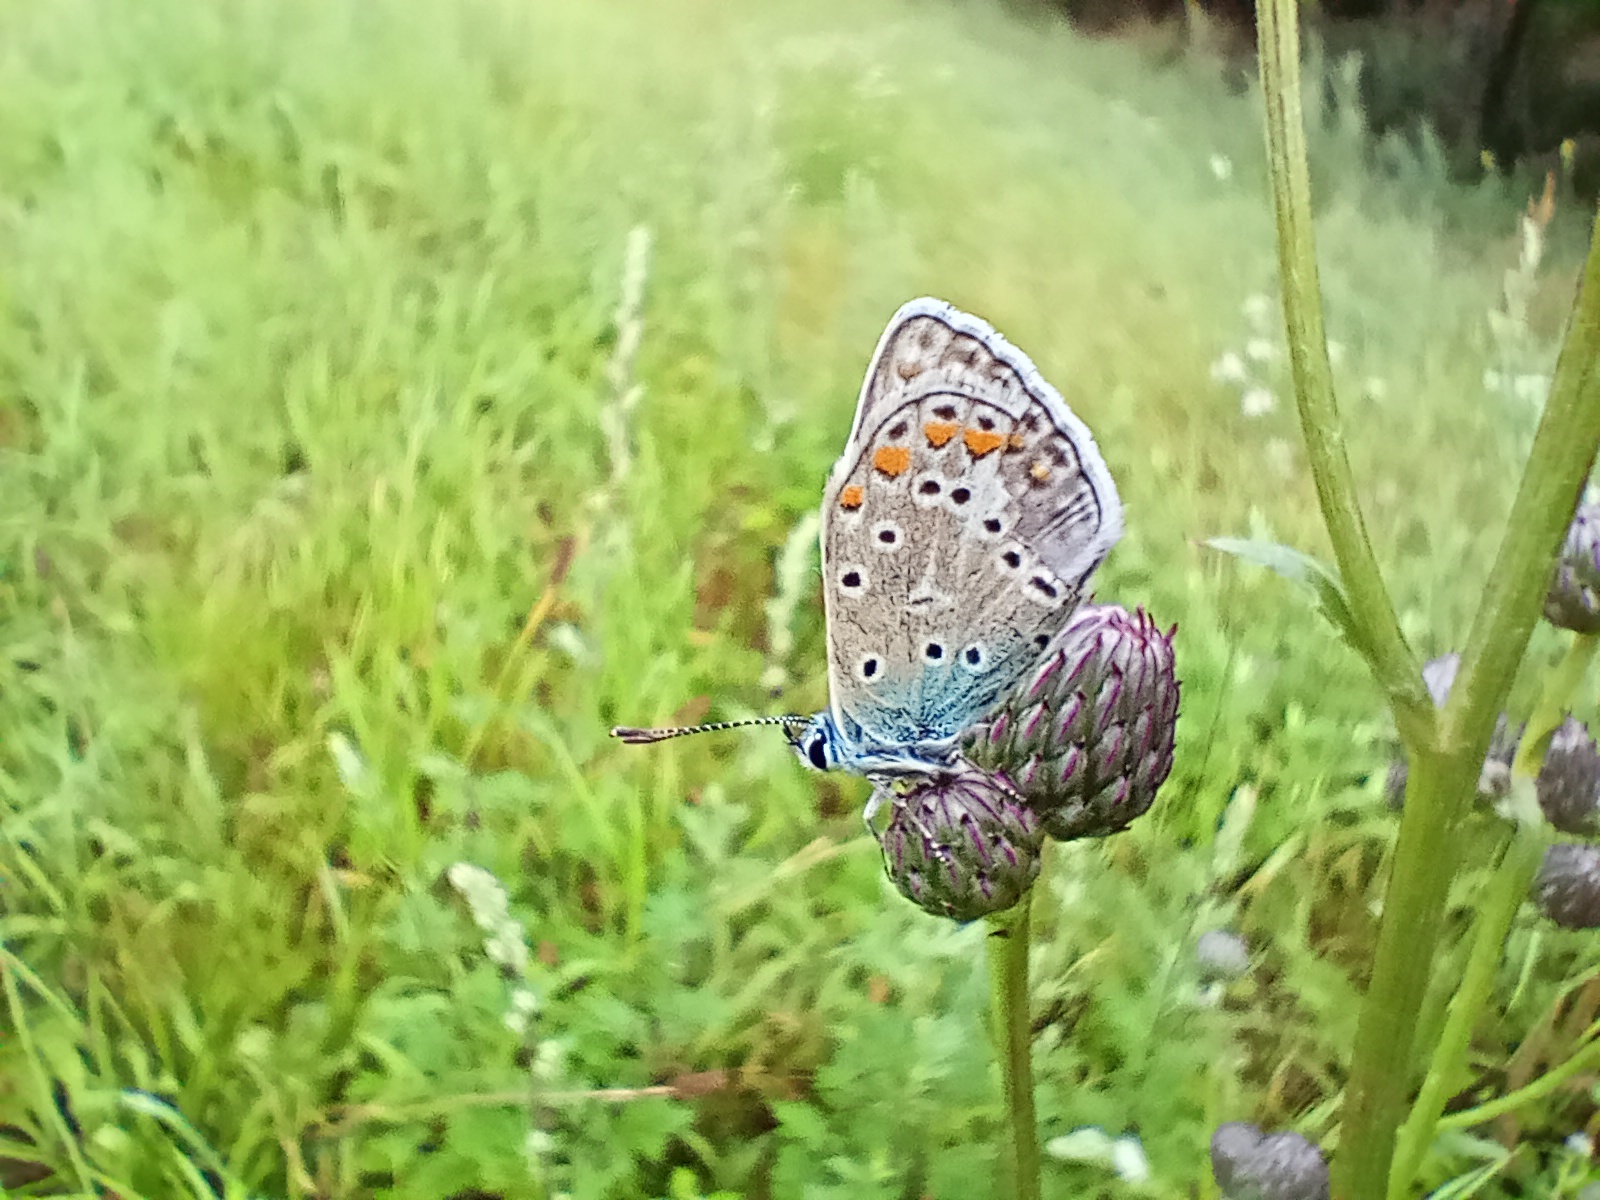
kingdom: Animalia
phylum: Arthropoda
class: Insecta
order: Lepidoptera
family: Lycaenidae
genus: Polyommatus
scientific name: Polyommatus icarus
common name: Common blue
